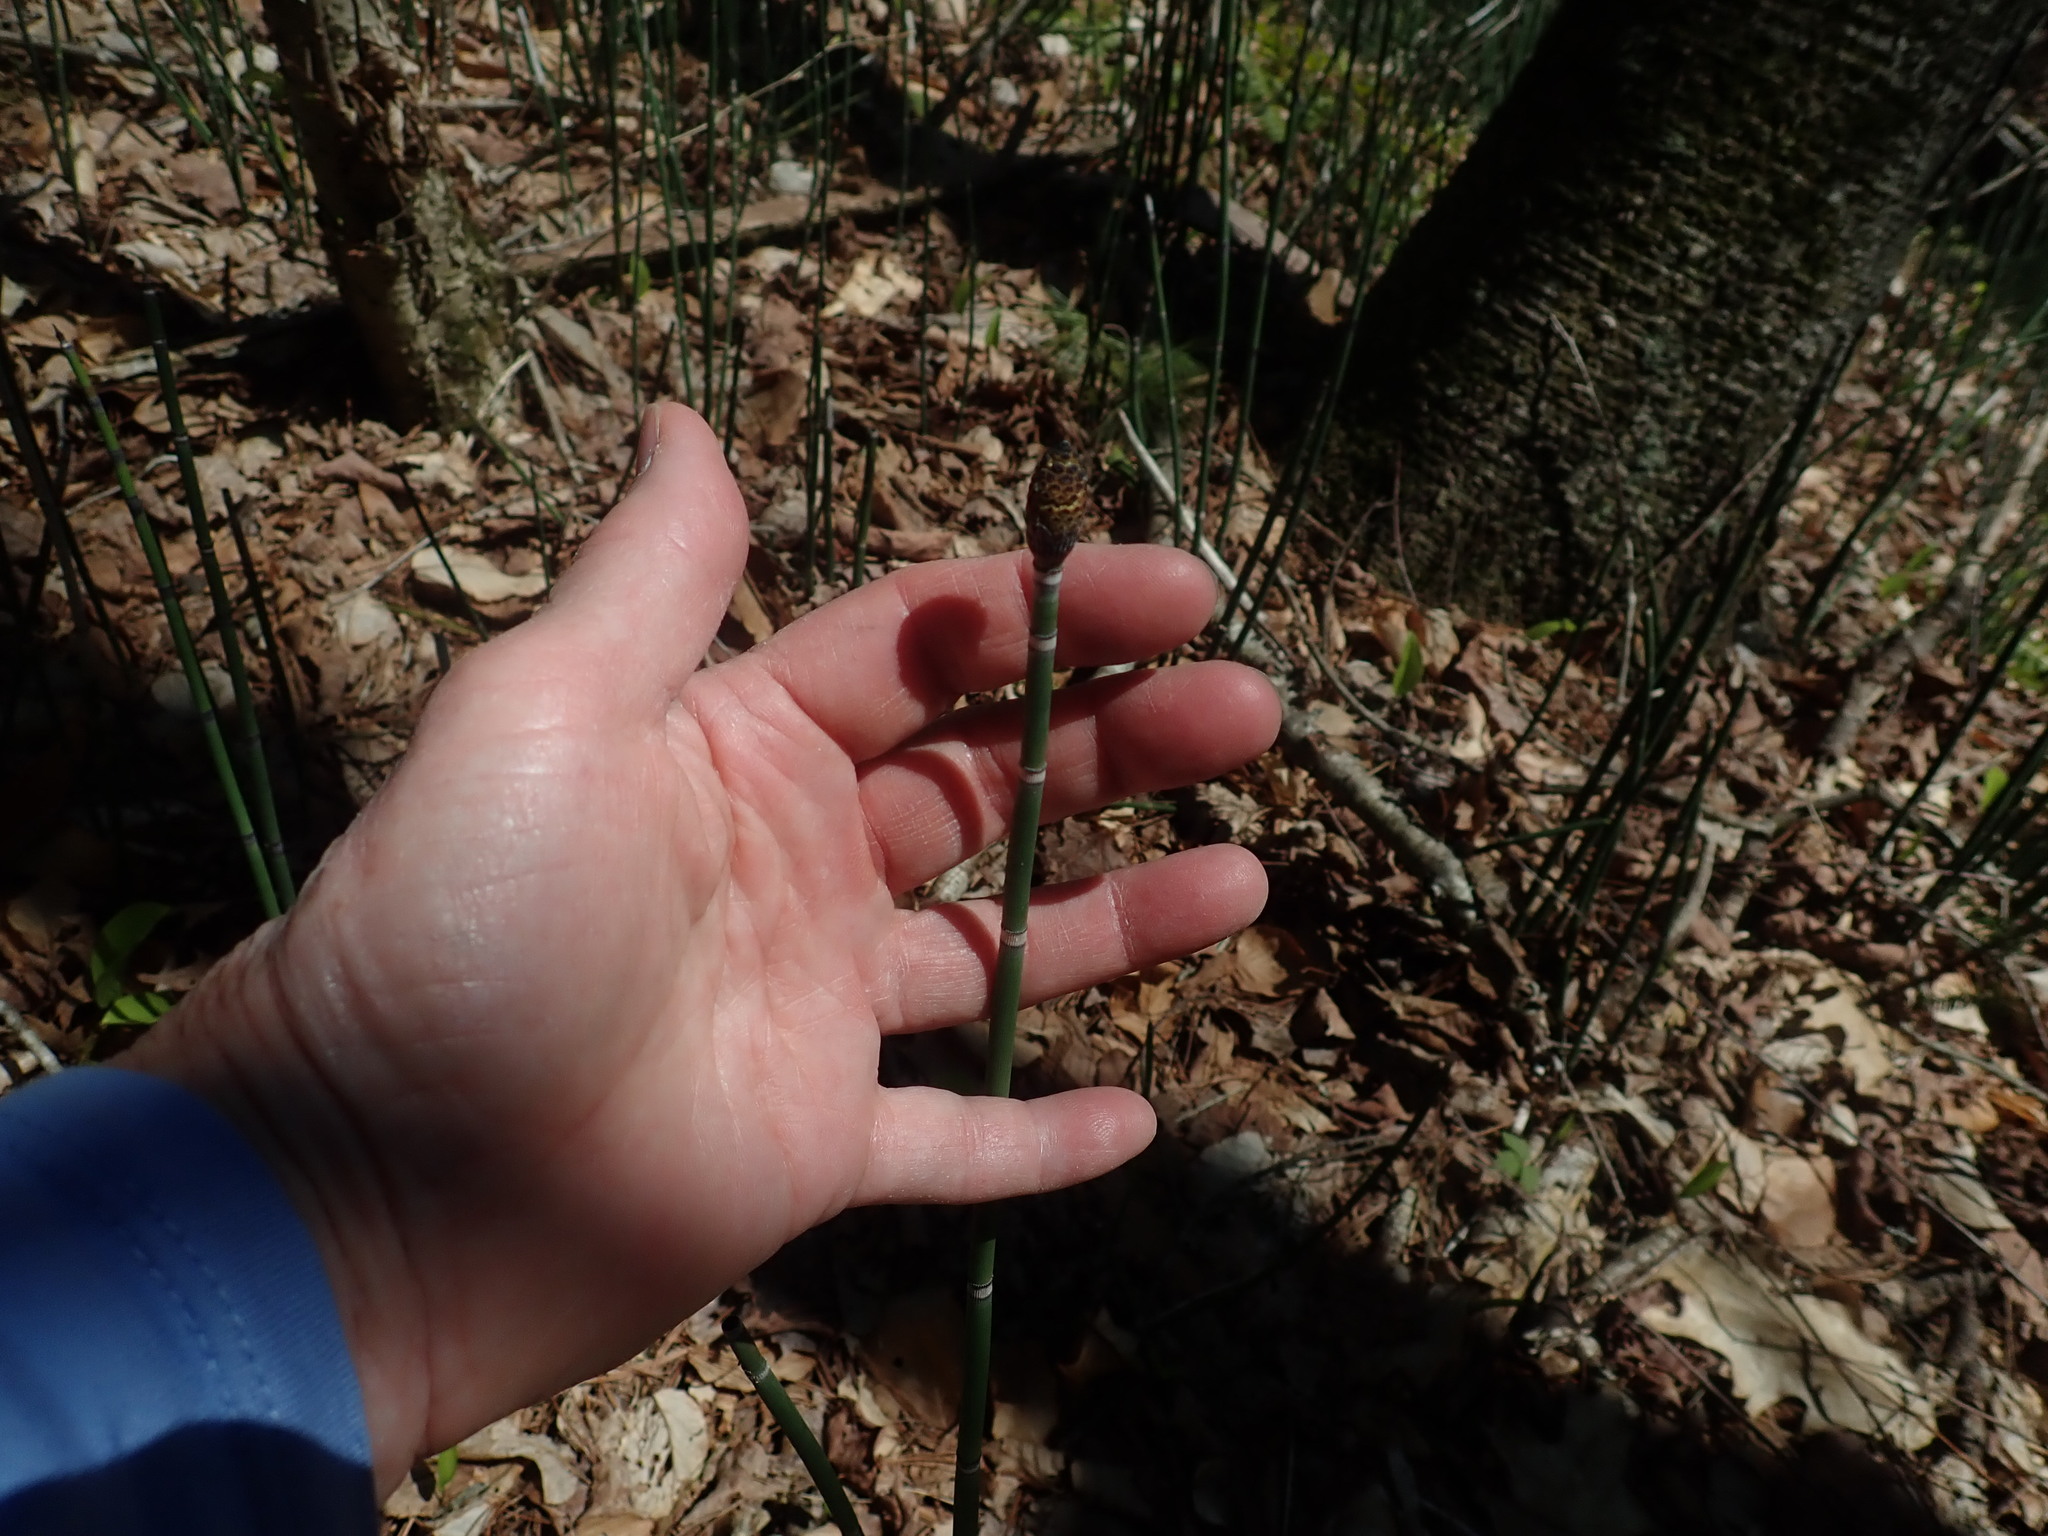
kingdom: Plantae
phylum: Tracheophyta
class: Polypodiopsida
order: Equisetales
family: Equisetaceae
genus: Equisetum
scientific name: Equisetum hyemale
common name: Rough horsetail
